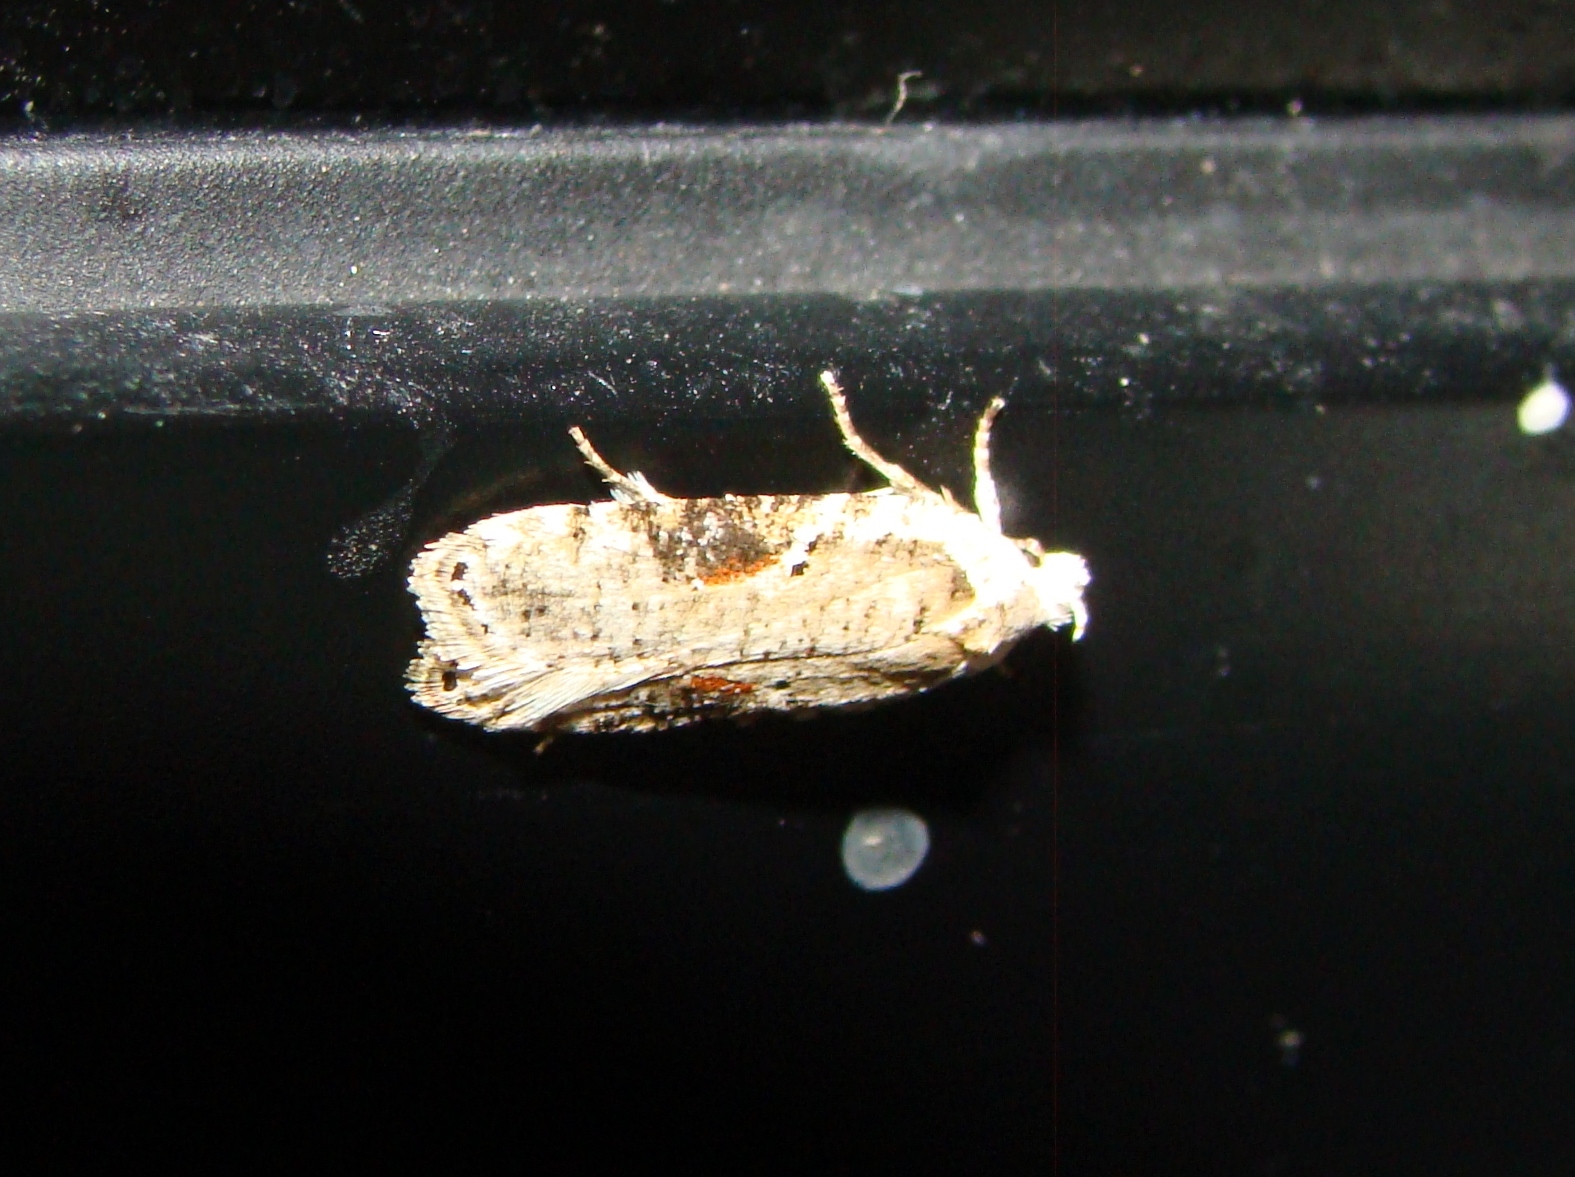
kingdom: Animalia
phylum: Arthropoda
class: Insecta
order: Lepidoptera
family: Depressariidae
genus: Agonopterix
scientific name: Agonopterix alstroemeriana
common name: Moth
